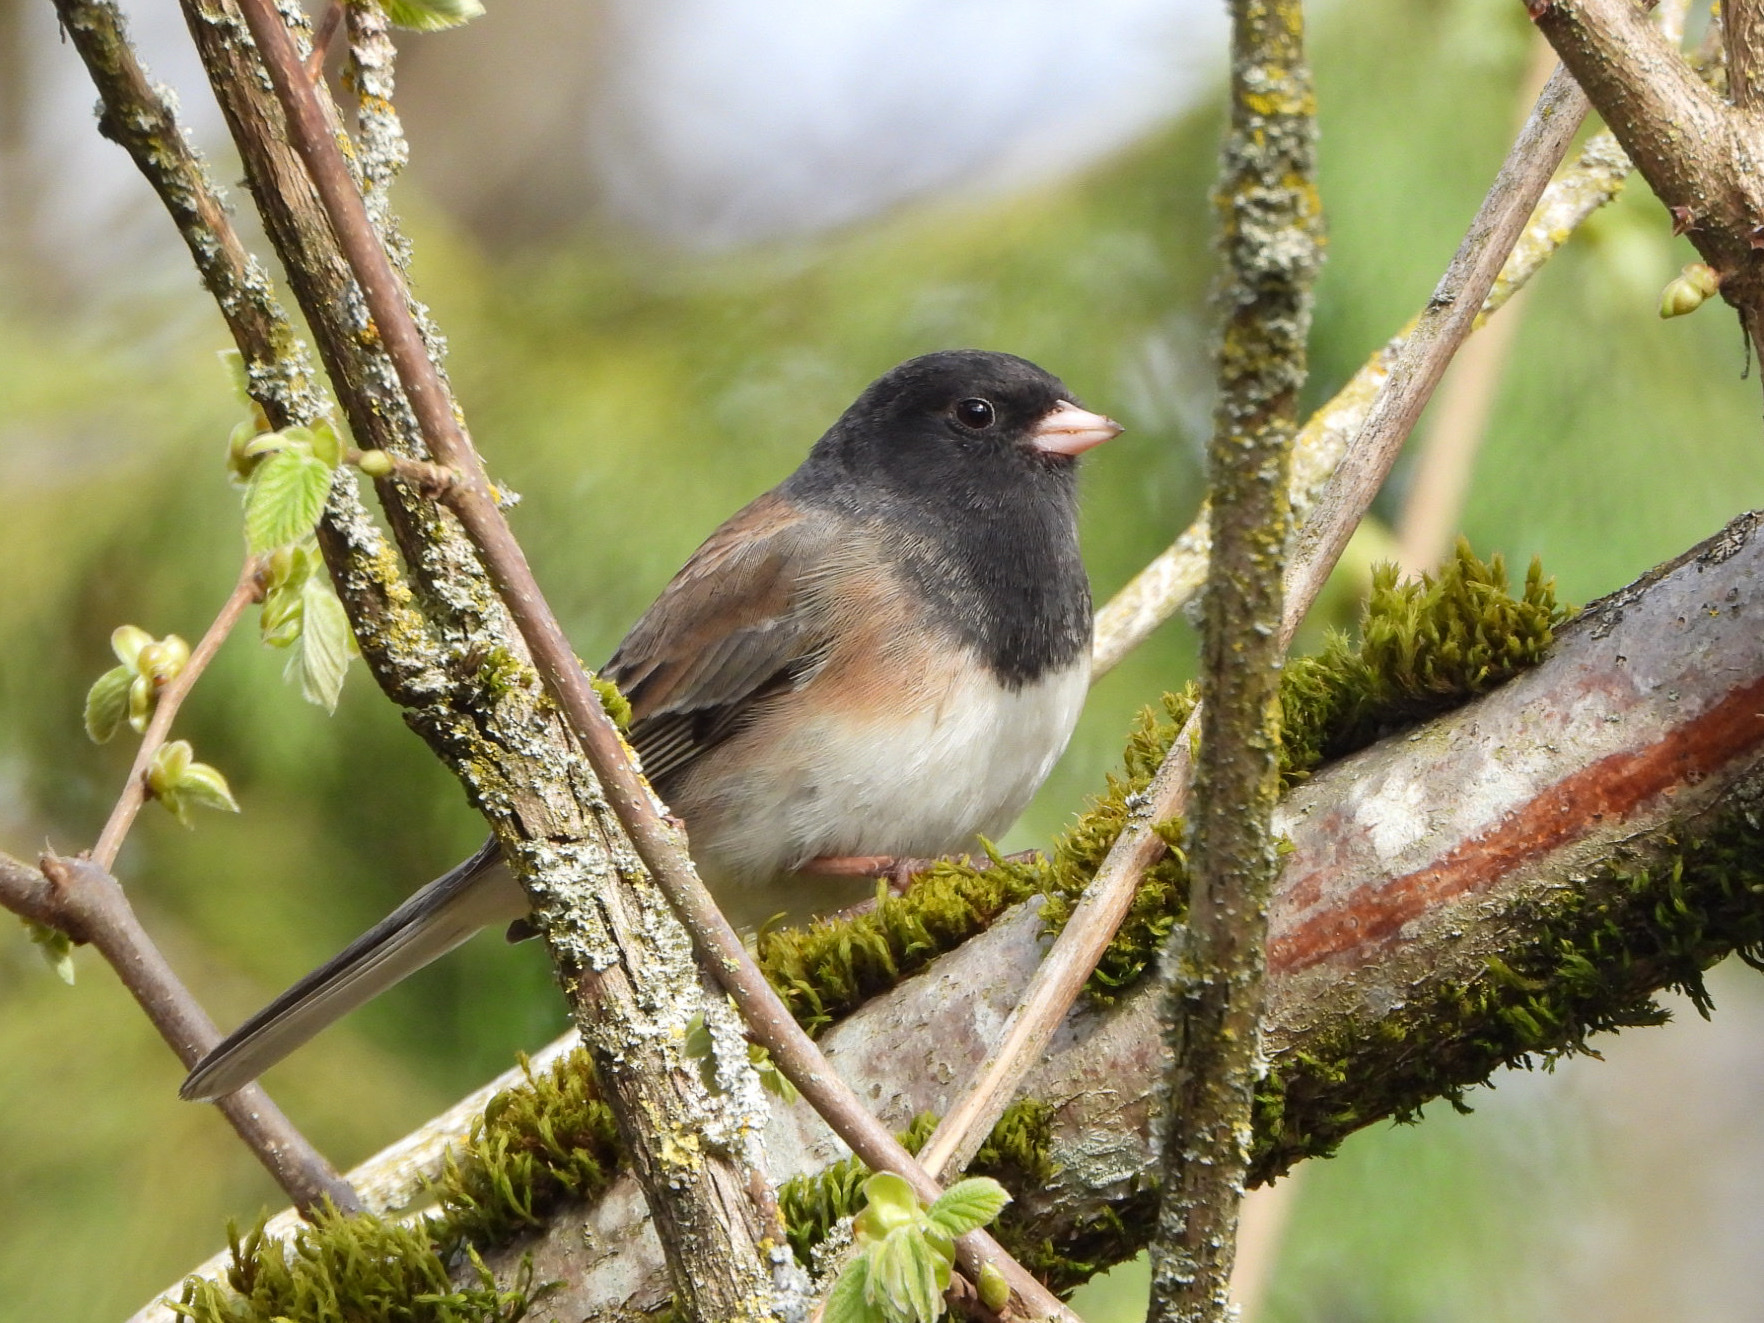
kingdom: Animalia
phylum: Chordata
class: Aves
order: Passeriformes
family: Passerellidae
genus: Junco
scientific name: Junco hyemalis
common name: Dark-eyed junco
